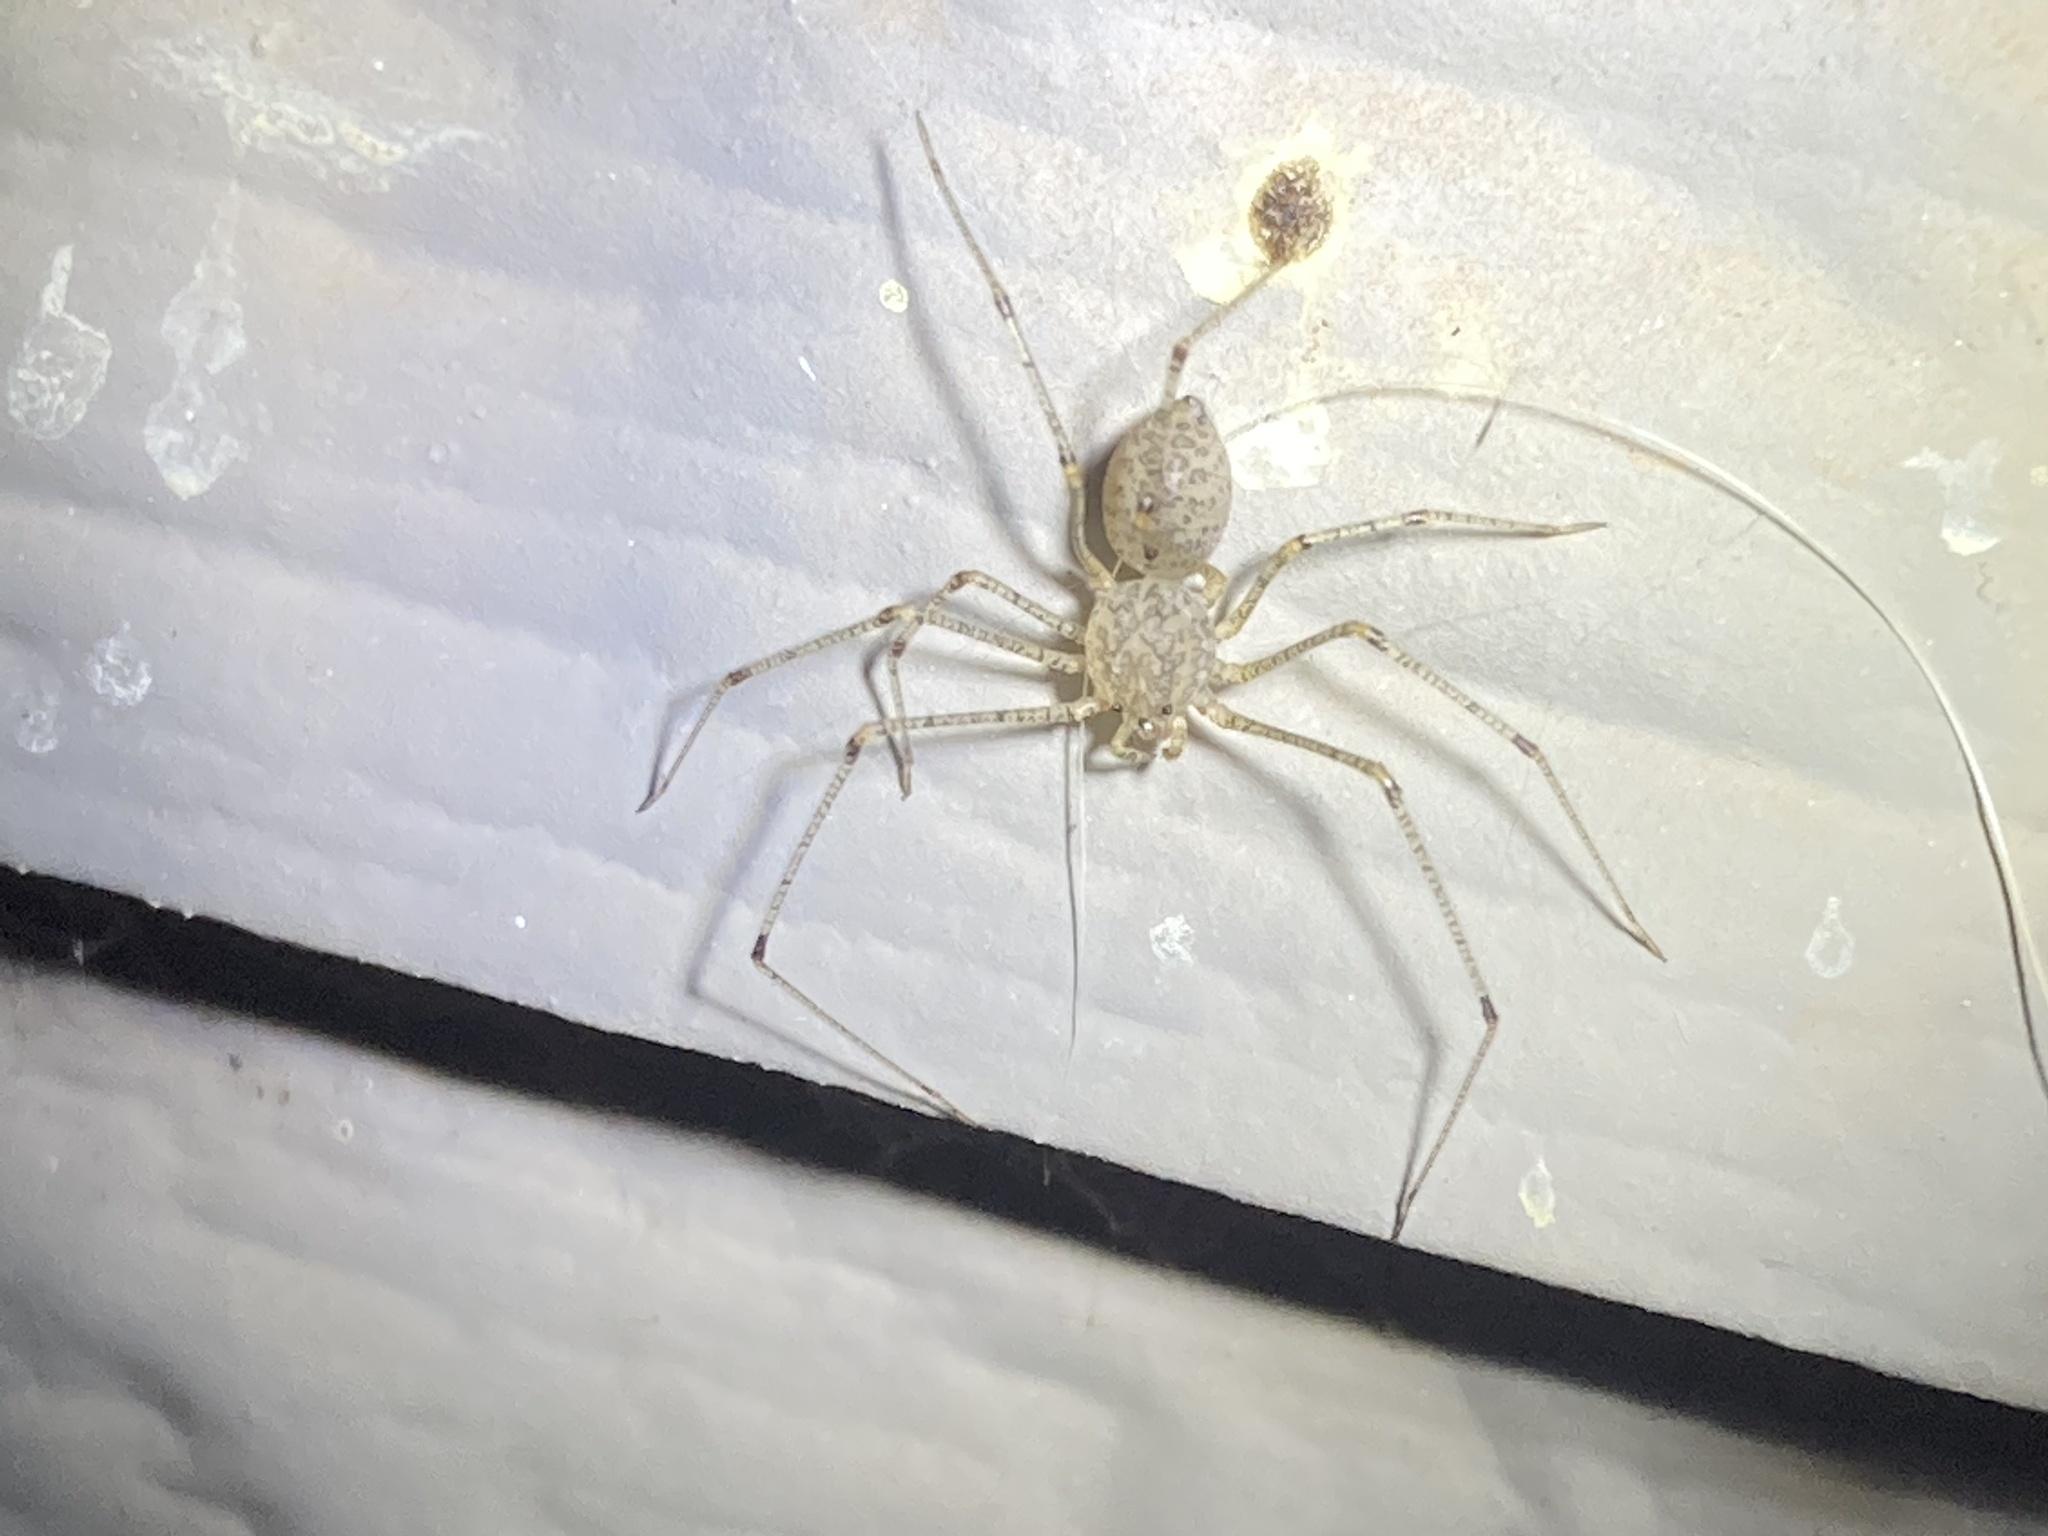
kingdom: Animalia
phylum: Arthropoda
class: Arachnida
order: Araneae
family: Scytodidae
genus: Scytodes
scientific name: Scytodes atlacoya
